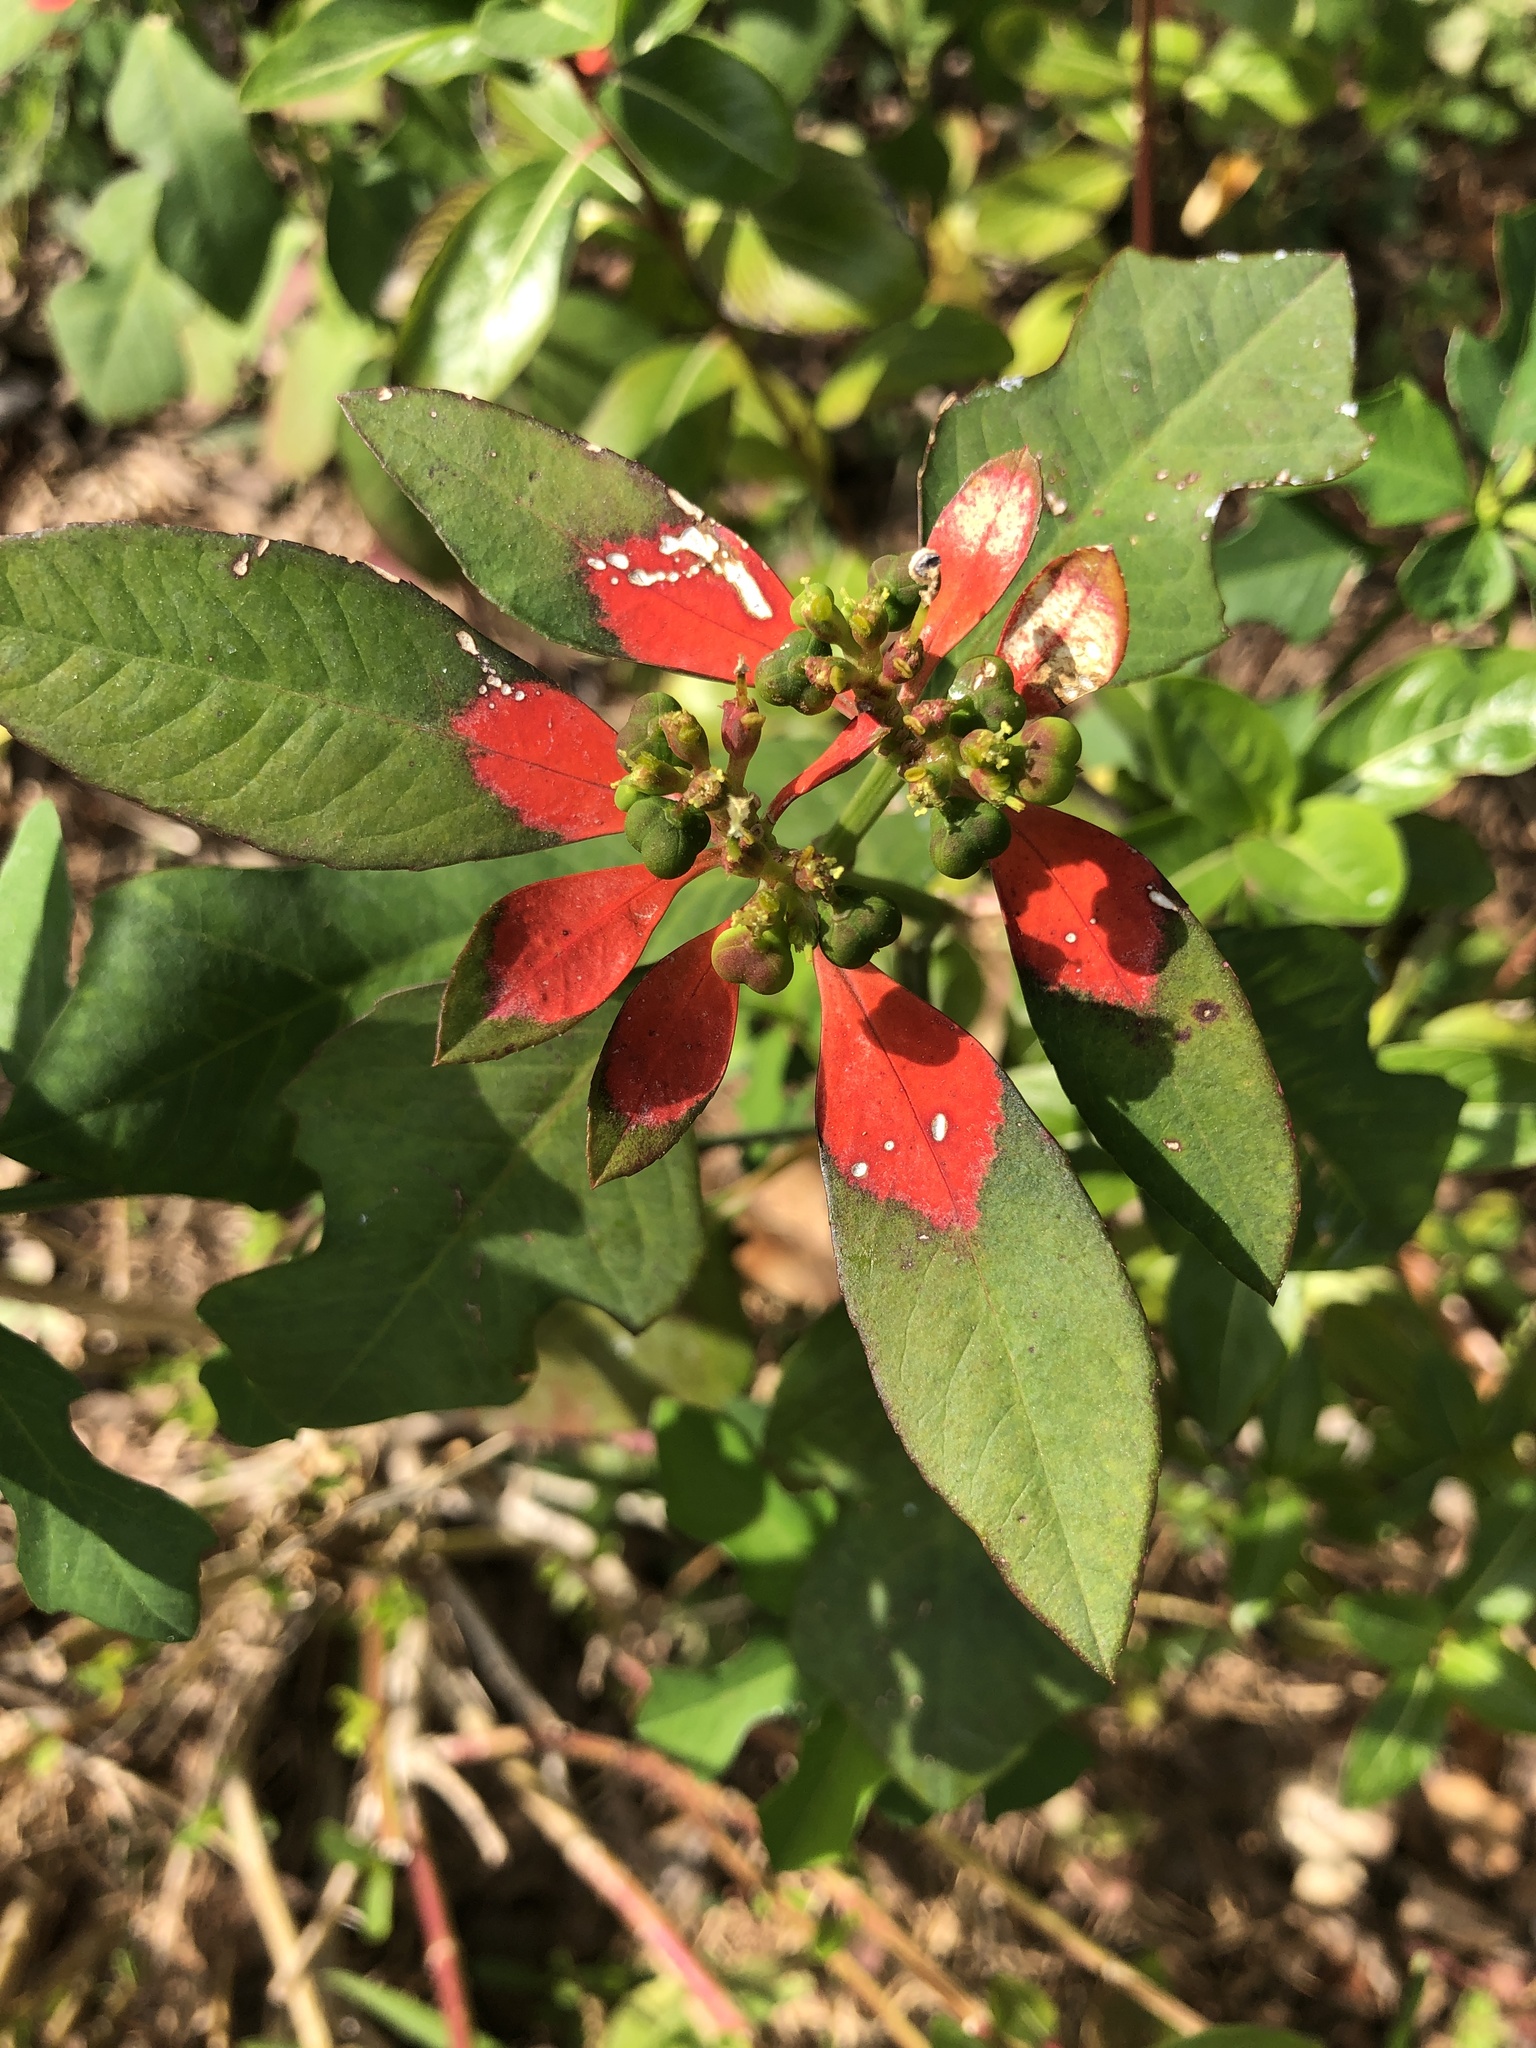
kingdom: Plantae
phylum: Tracheophyta
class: Magnoliopsida
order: Malpighiales
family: Euphorbiaceae
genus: Euphorbia
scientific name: Euphorbia heterophylla
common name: Mexican fireplant
